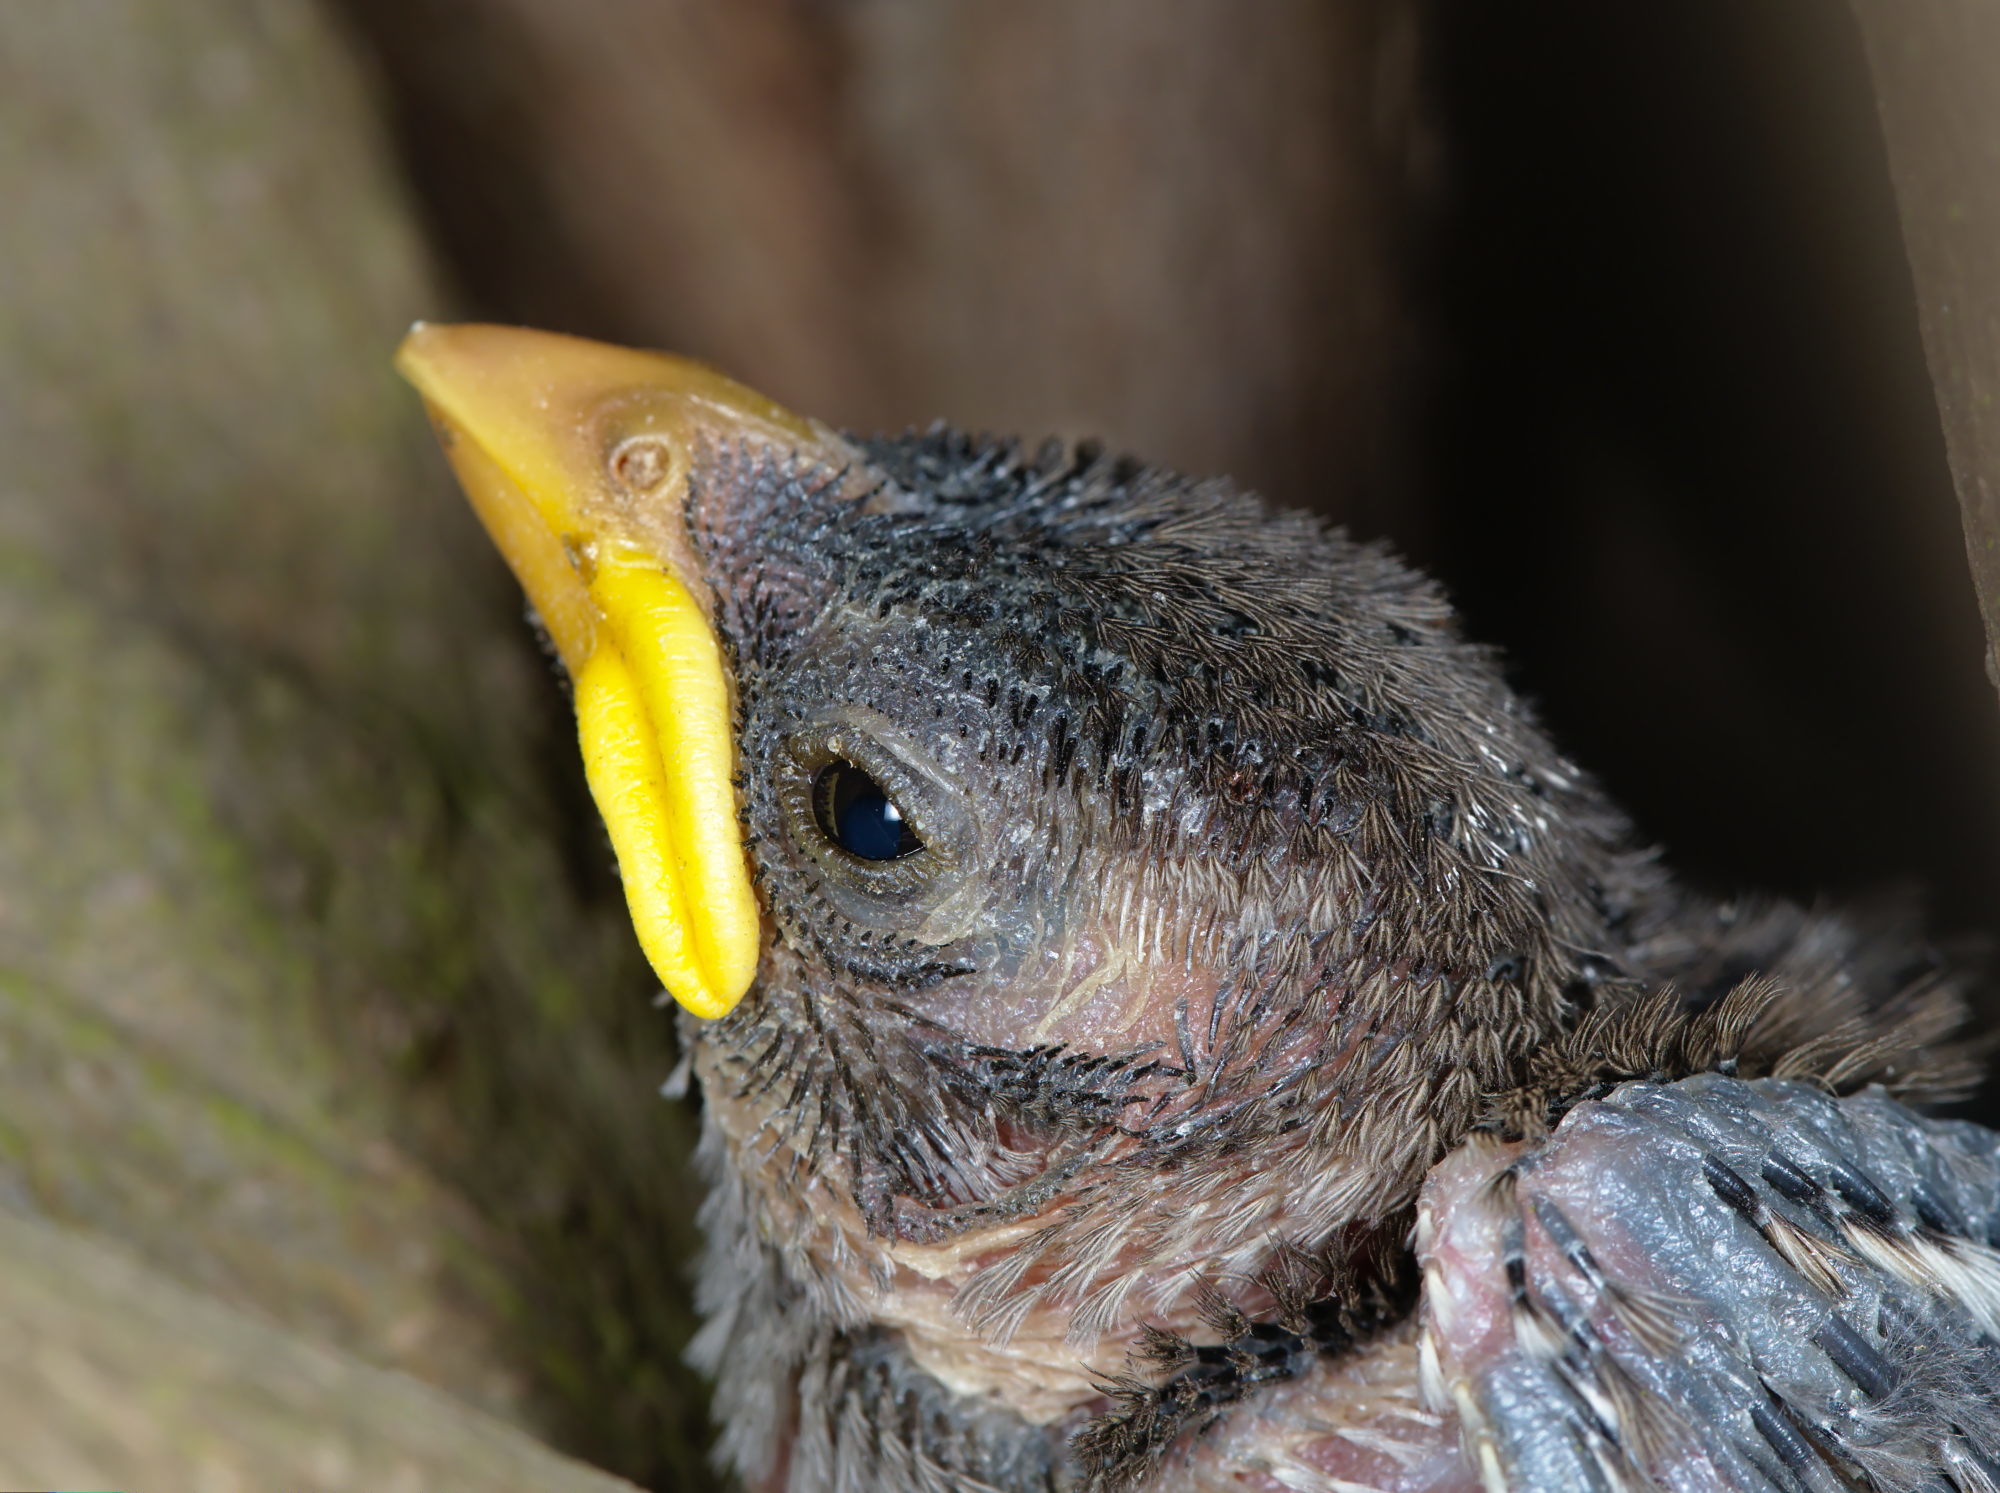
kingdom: Animalia
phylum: Chordata
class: Aves
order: Passeriformes
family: Passeridae
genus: Passer
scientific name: Passer domesticus
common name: House sparrow
